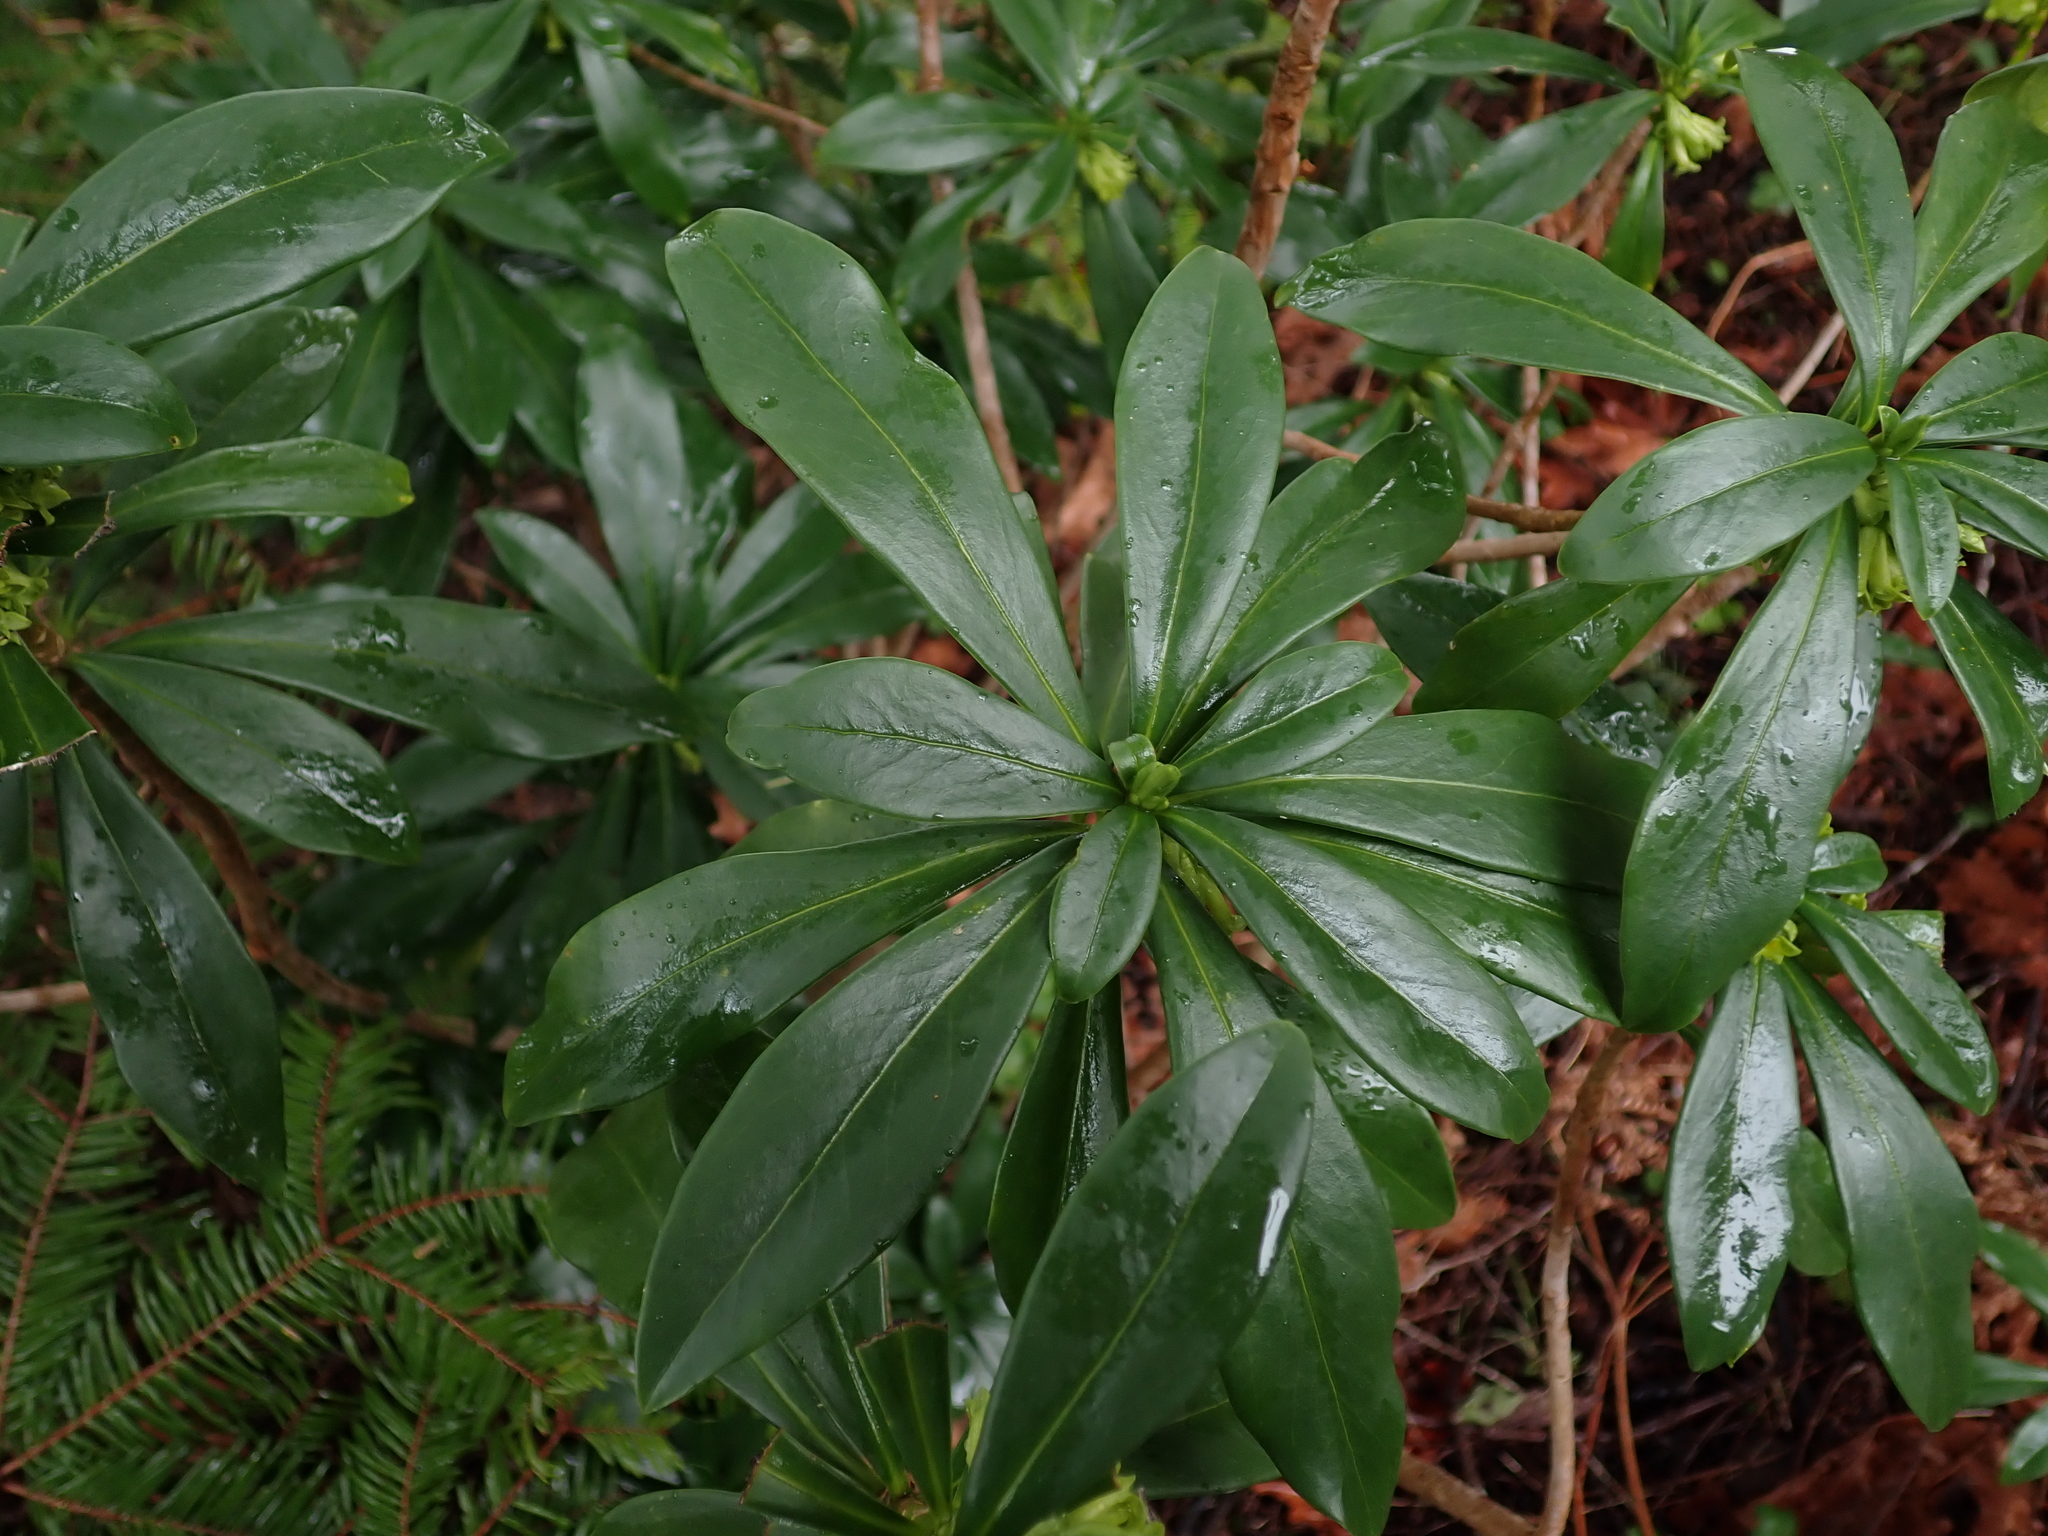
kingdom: Plantae
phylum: Tracheophyta
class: Magnoliopsida
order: Malvales
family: Thymelaeaceae
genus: Daphne
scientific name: Daphne laureola
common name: Spurge-laurel
